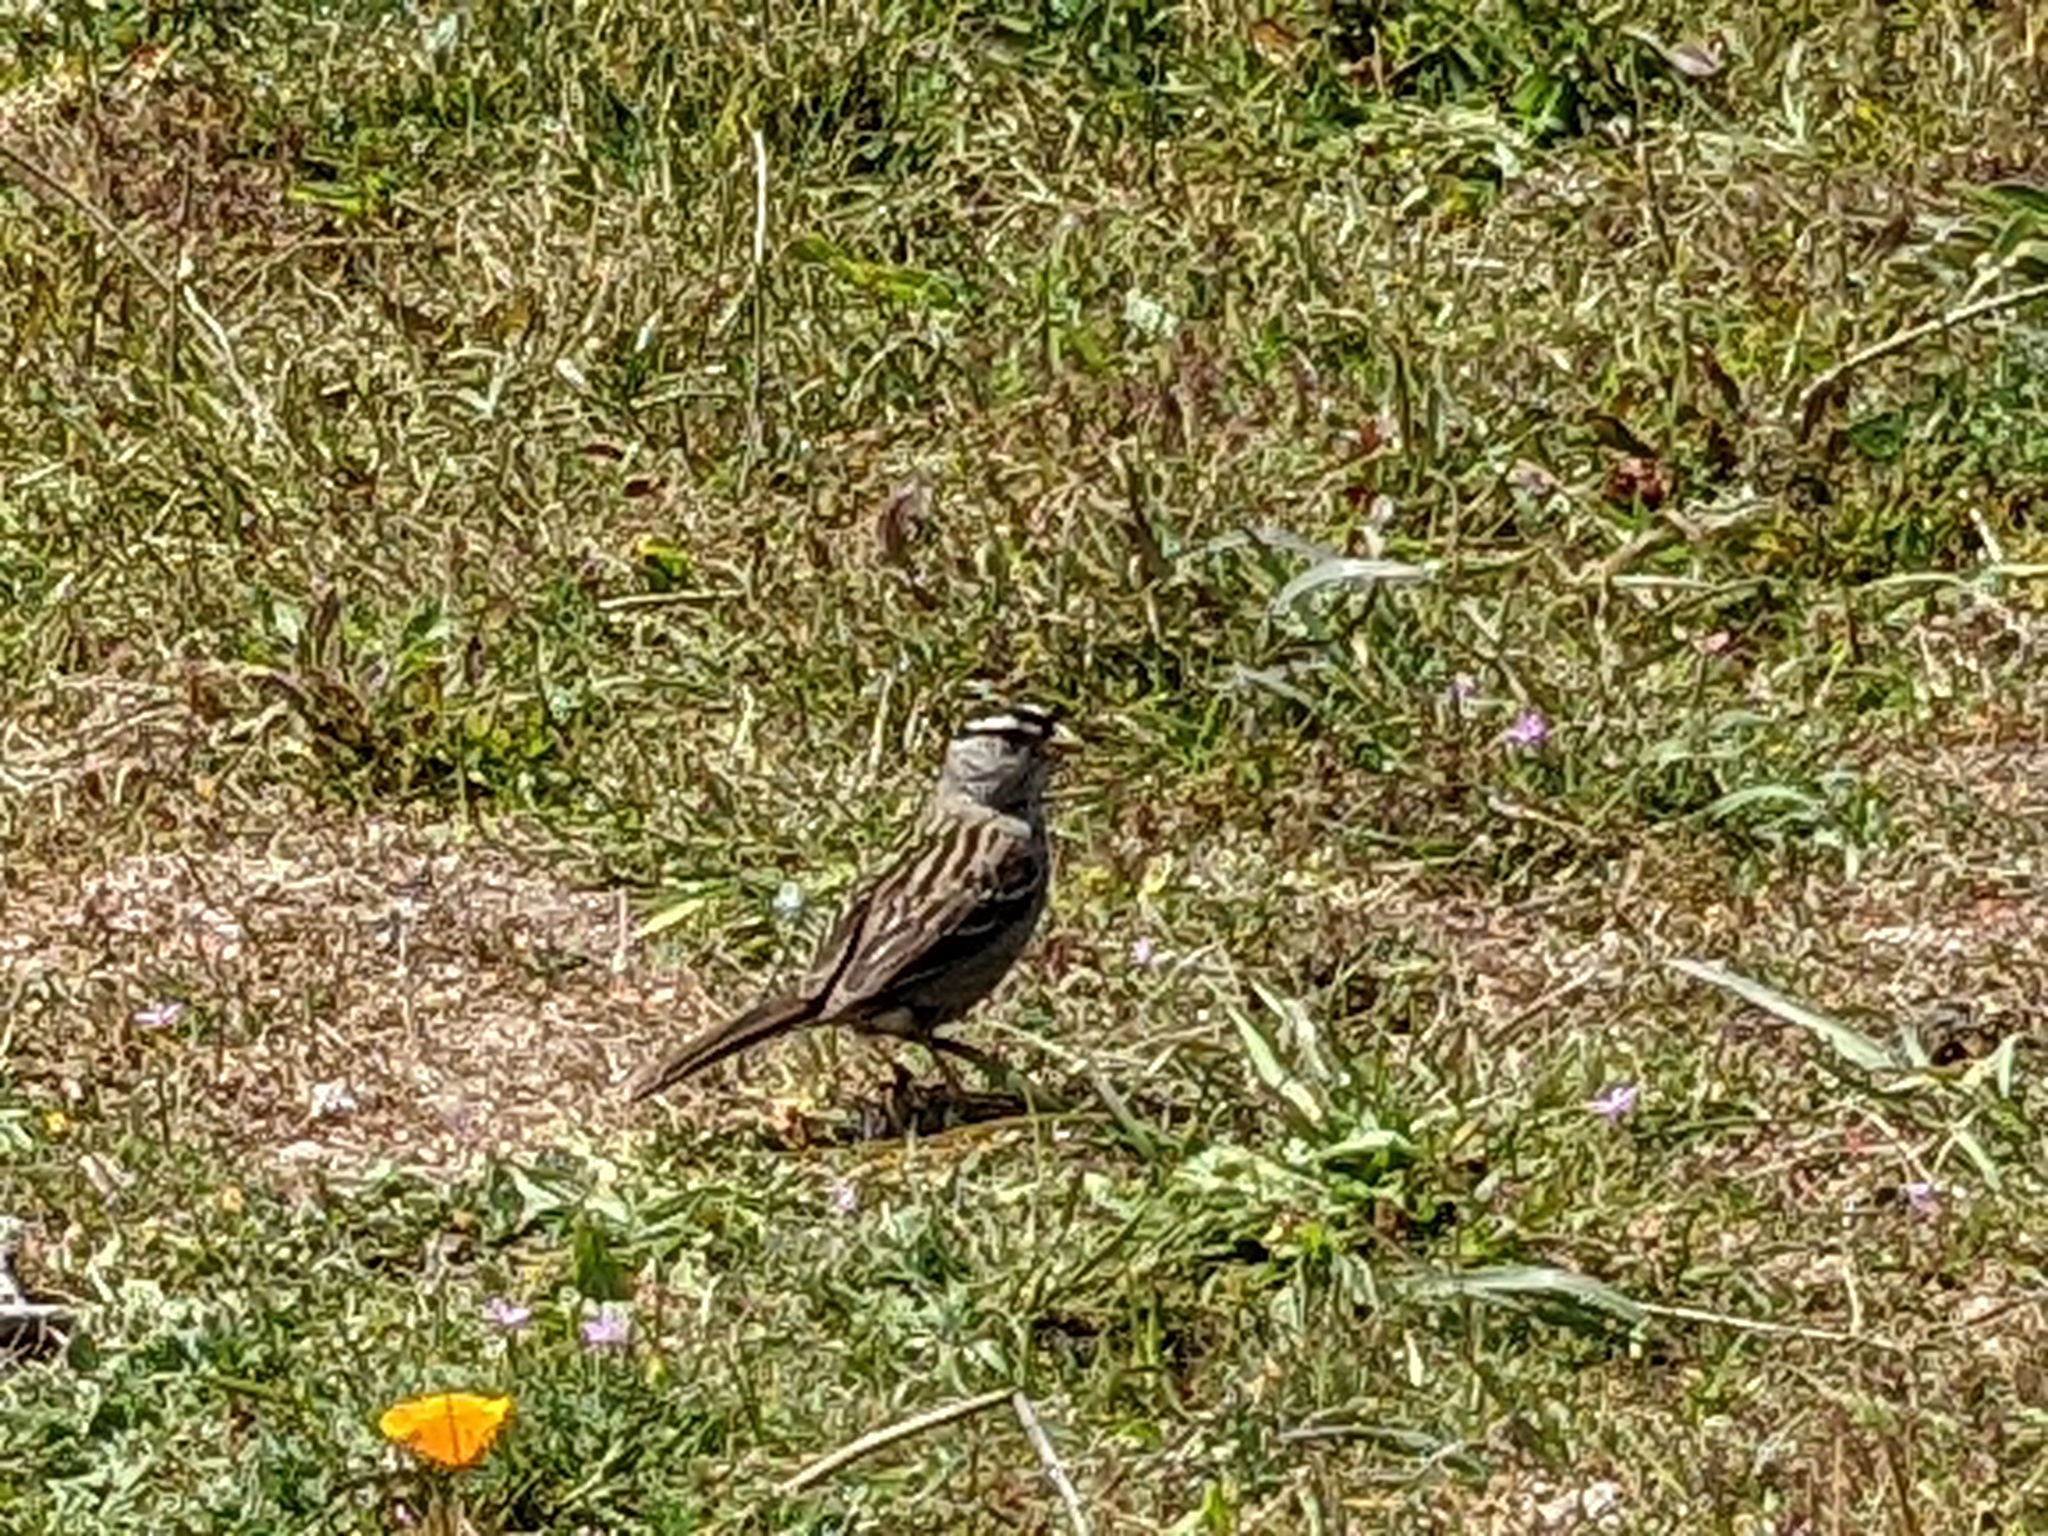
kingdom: Animalia
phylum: Chordata
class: Aves
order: Passeriformes
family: Passerellidae
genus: Zonotrichia
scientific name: Zonotrichia leucophrys
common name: White-crowned sparrow
